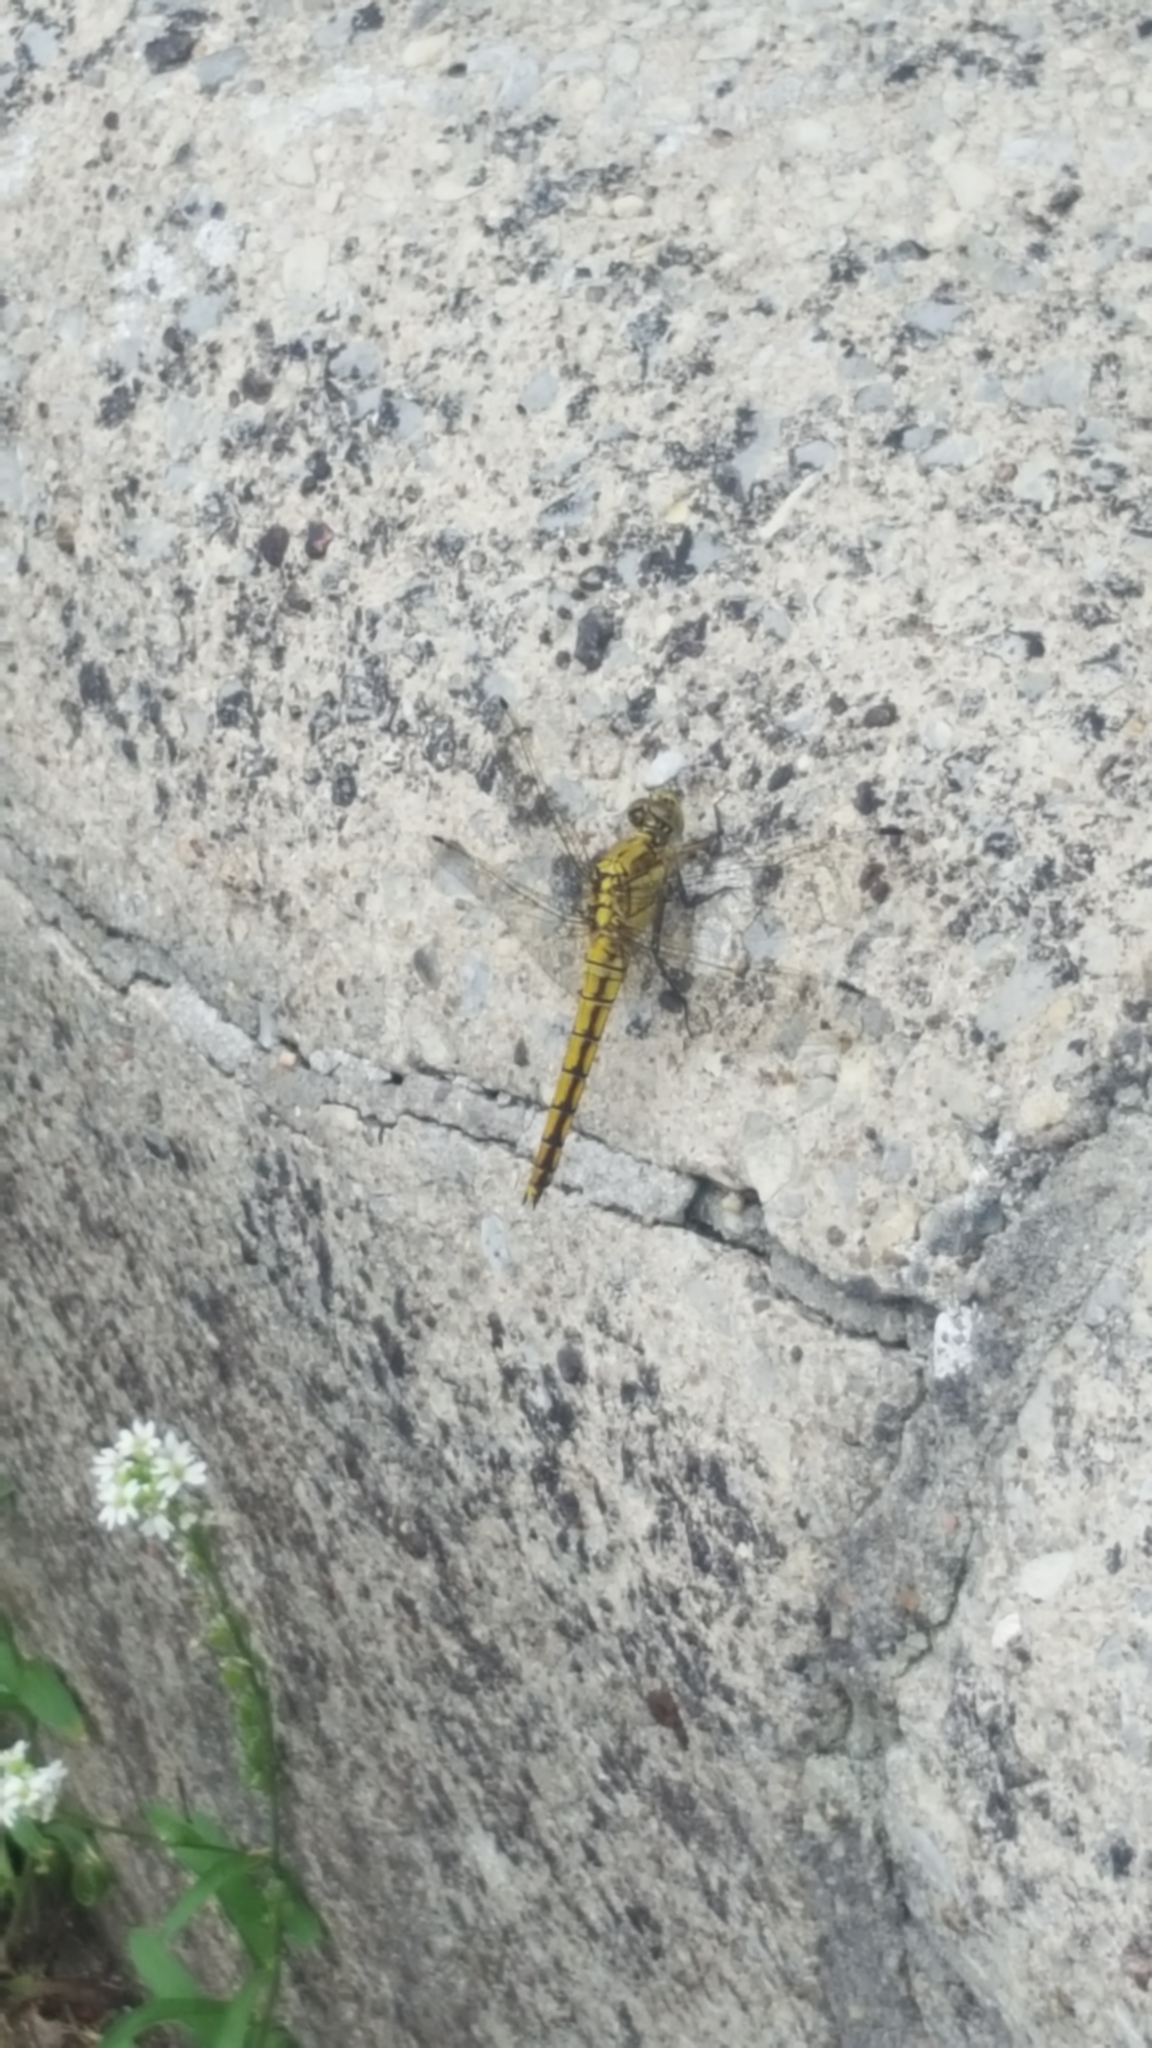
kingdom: Animalia
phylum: Arthropoda
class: Insecta
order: Odonata
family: Libellulidae
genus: Orthetrum
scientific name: Orthetrum cancellatum
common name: Black-tailed skimmer
